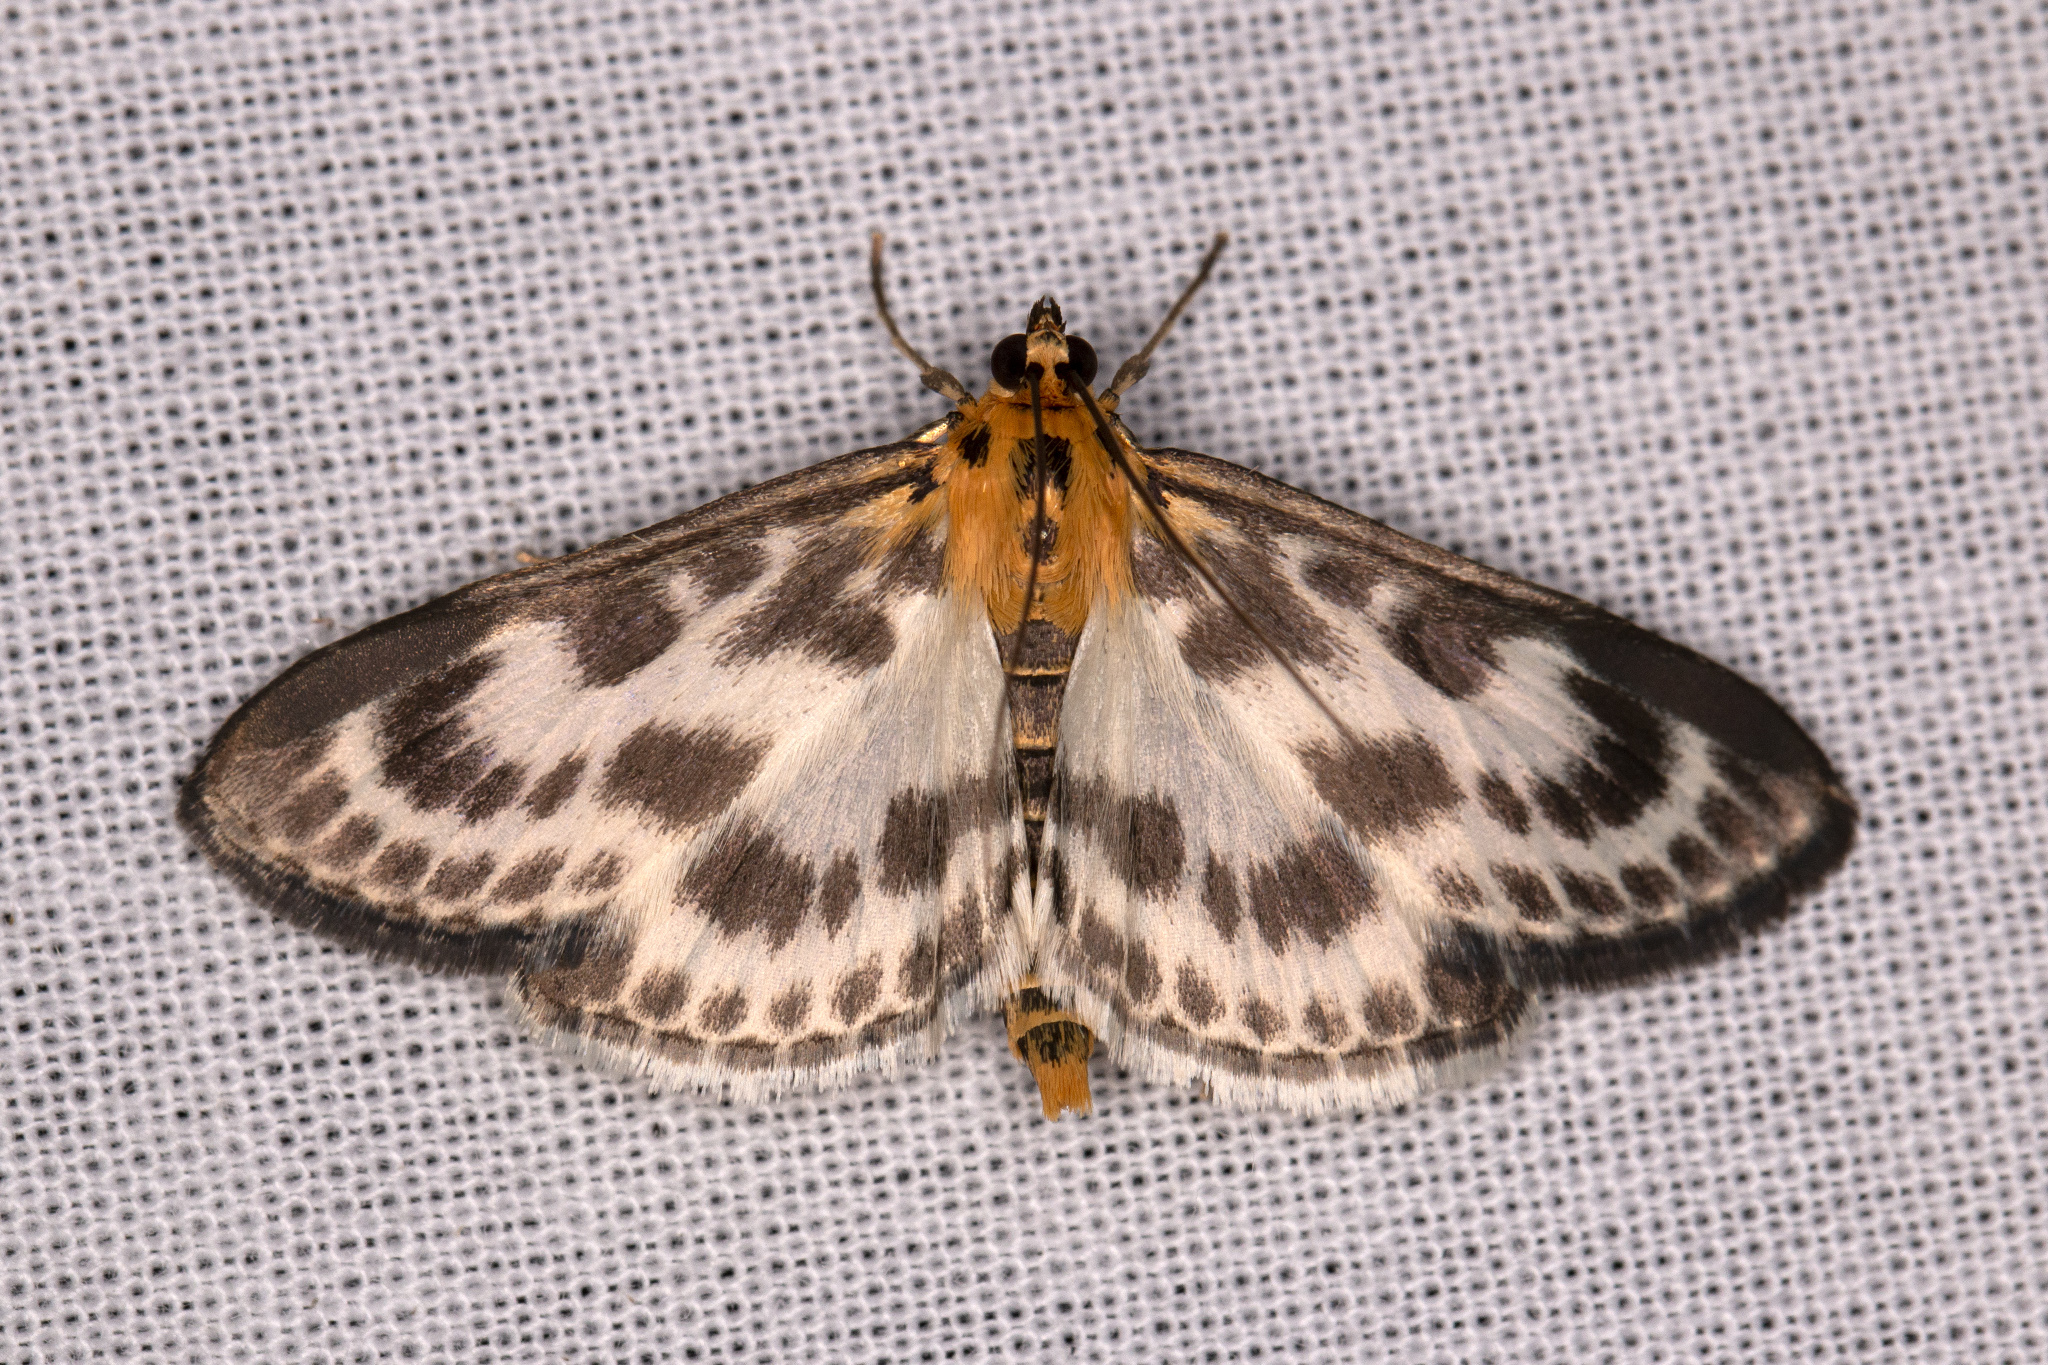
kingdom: Animalia
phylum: Arthropoda
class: Insecta
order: Lepidoptera
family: Crambidae
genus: Anania
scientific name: Anania hortulata
